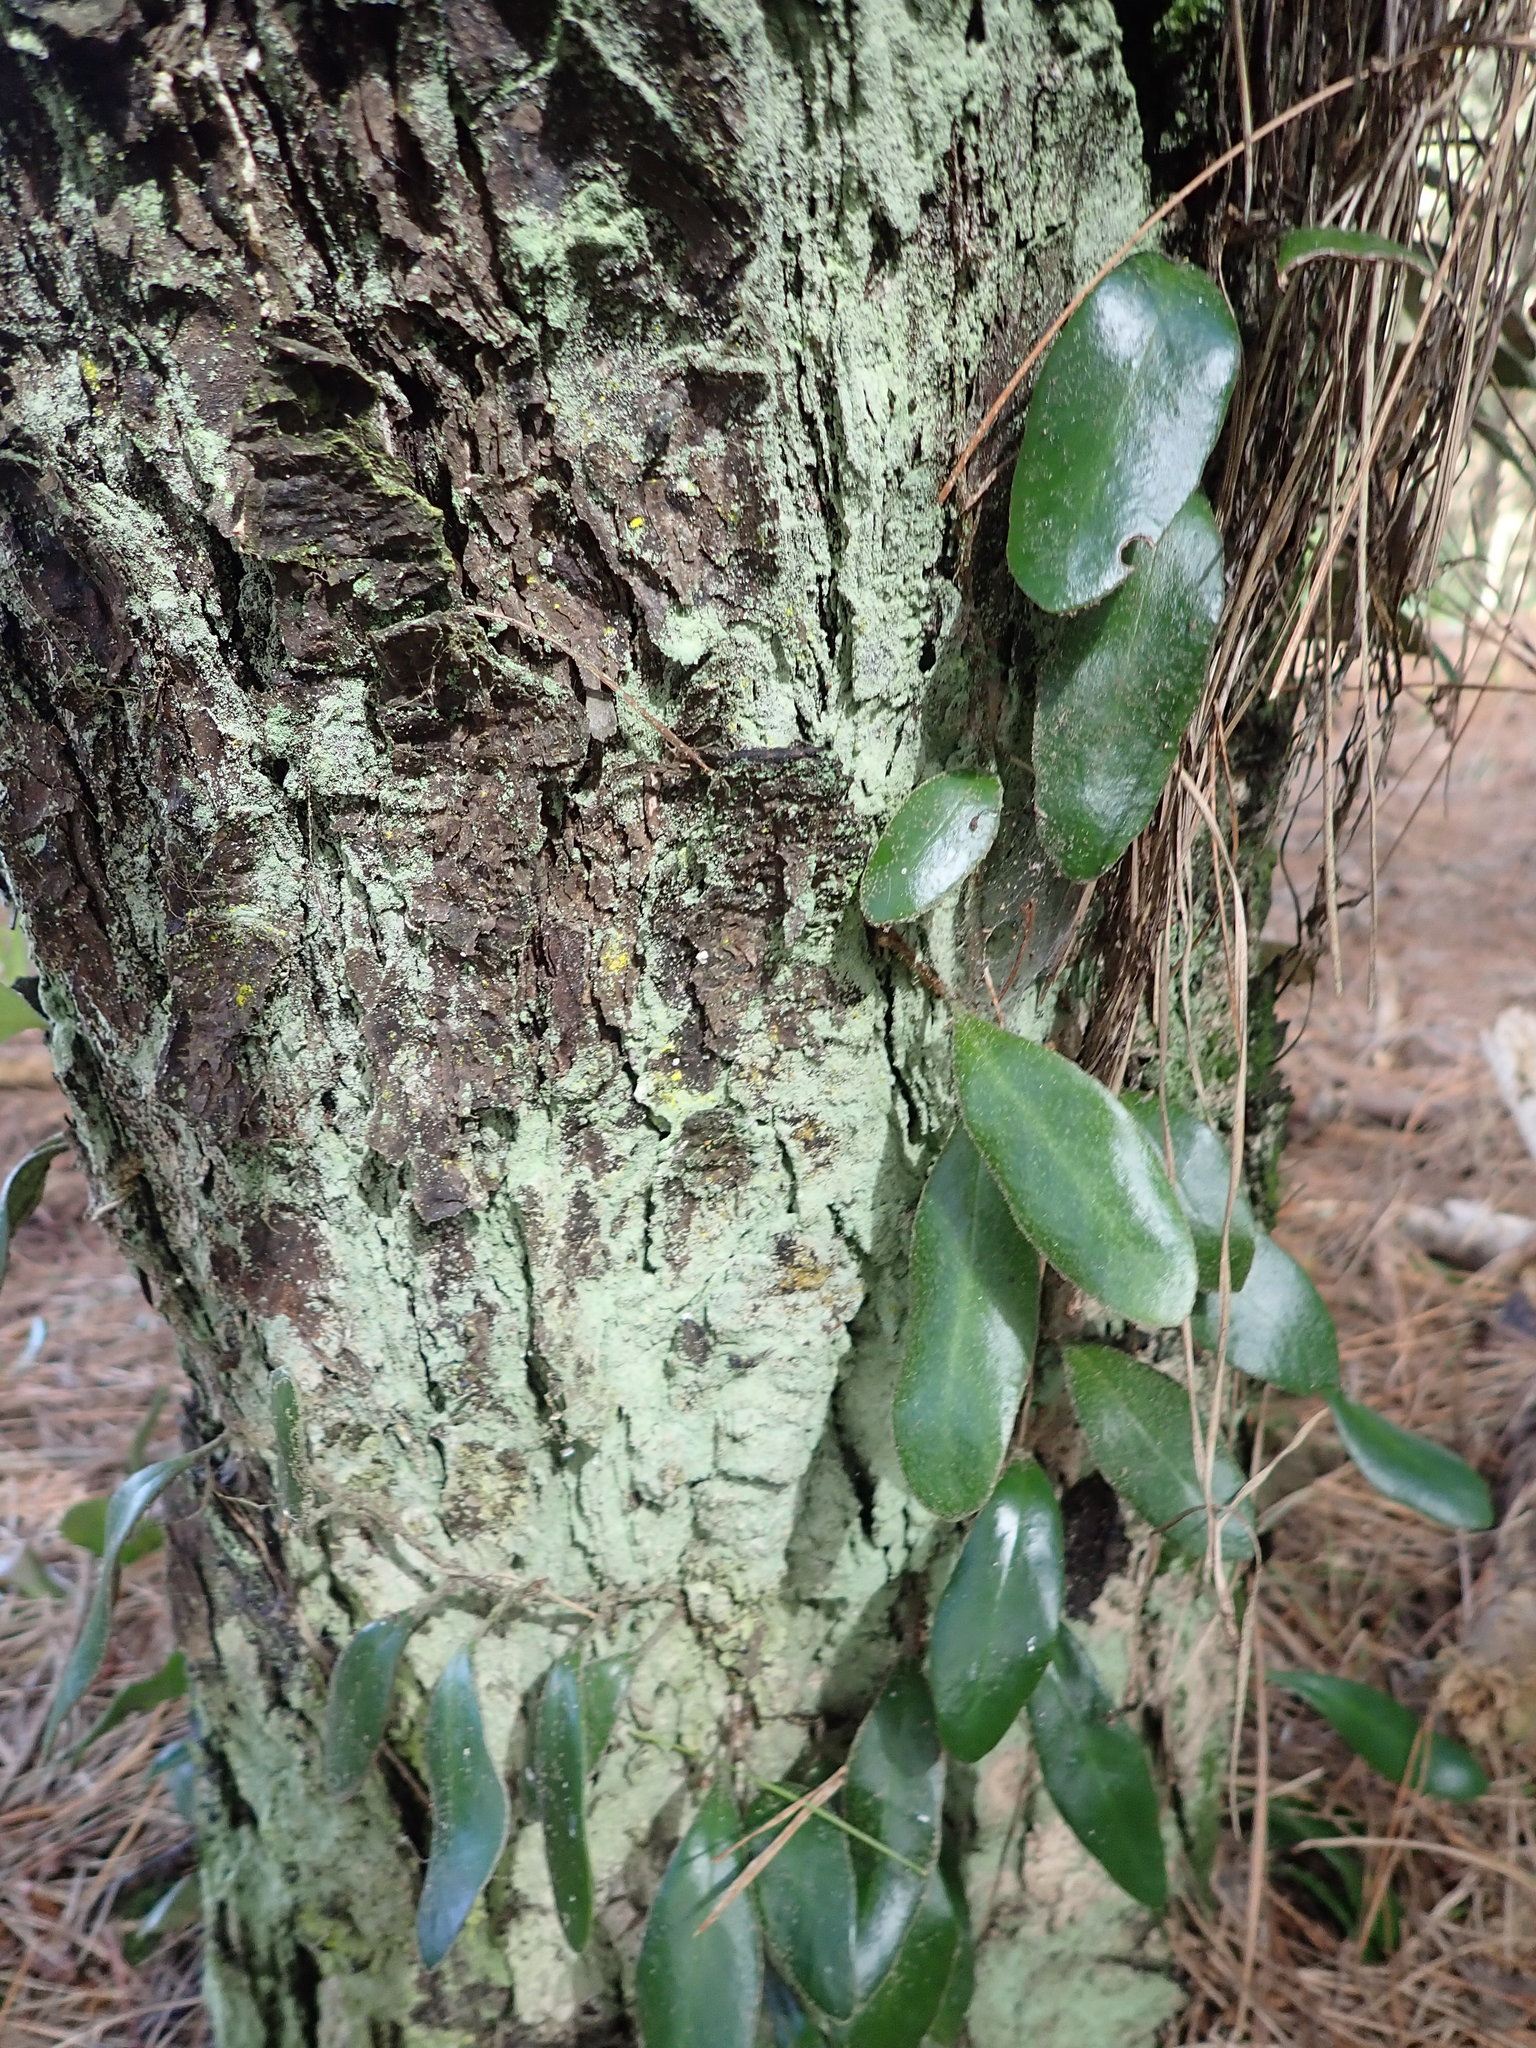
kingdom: Plantae
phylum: Tracheophyta
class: Polypodiopsida
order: Polypodiales
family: Polypodiaceae
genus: Pyrrosia
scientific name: Pyrrosia eleagnifolia
